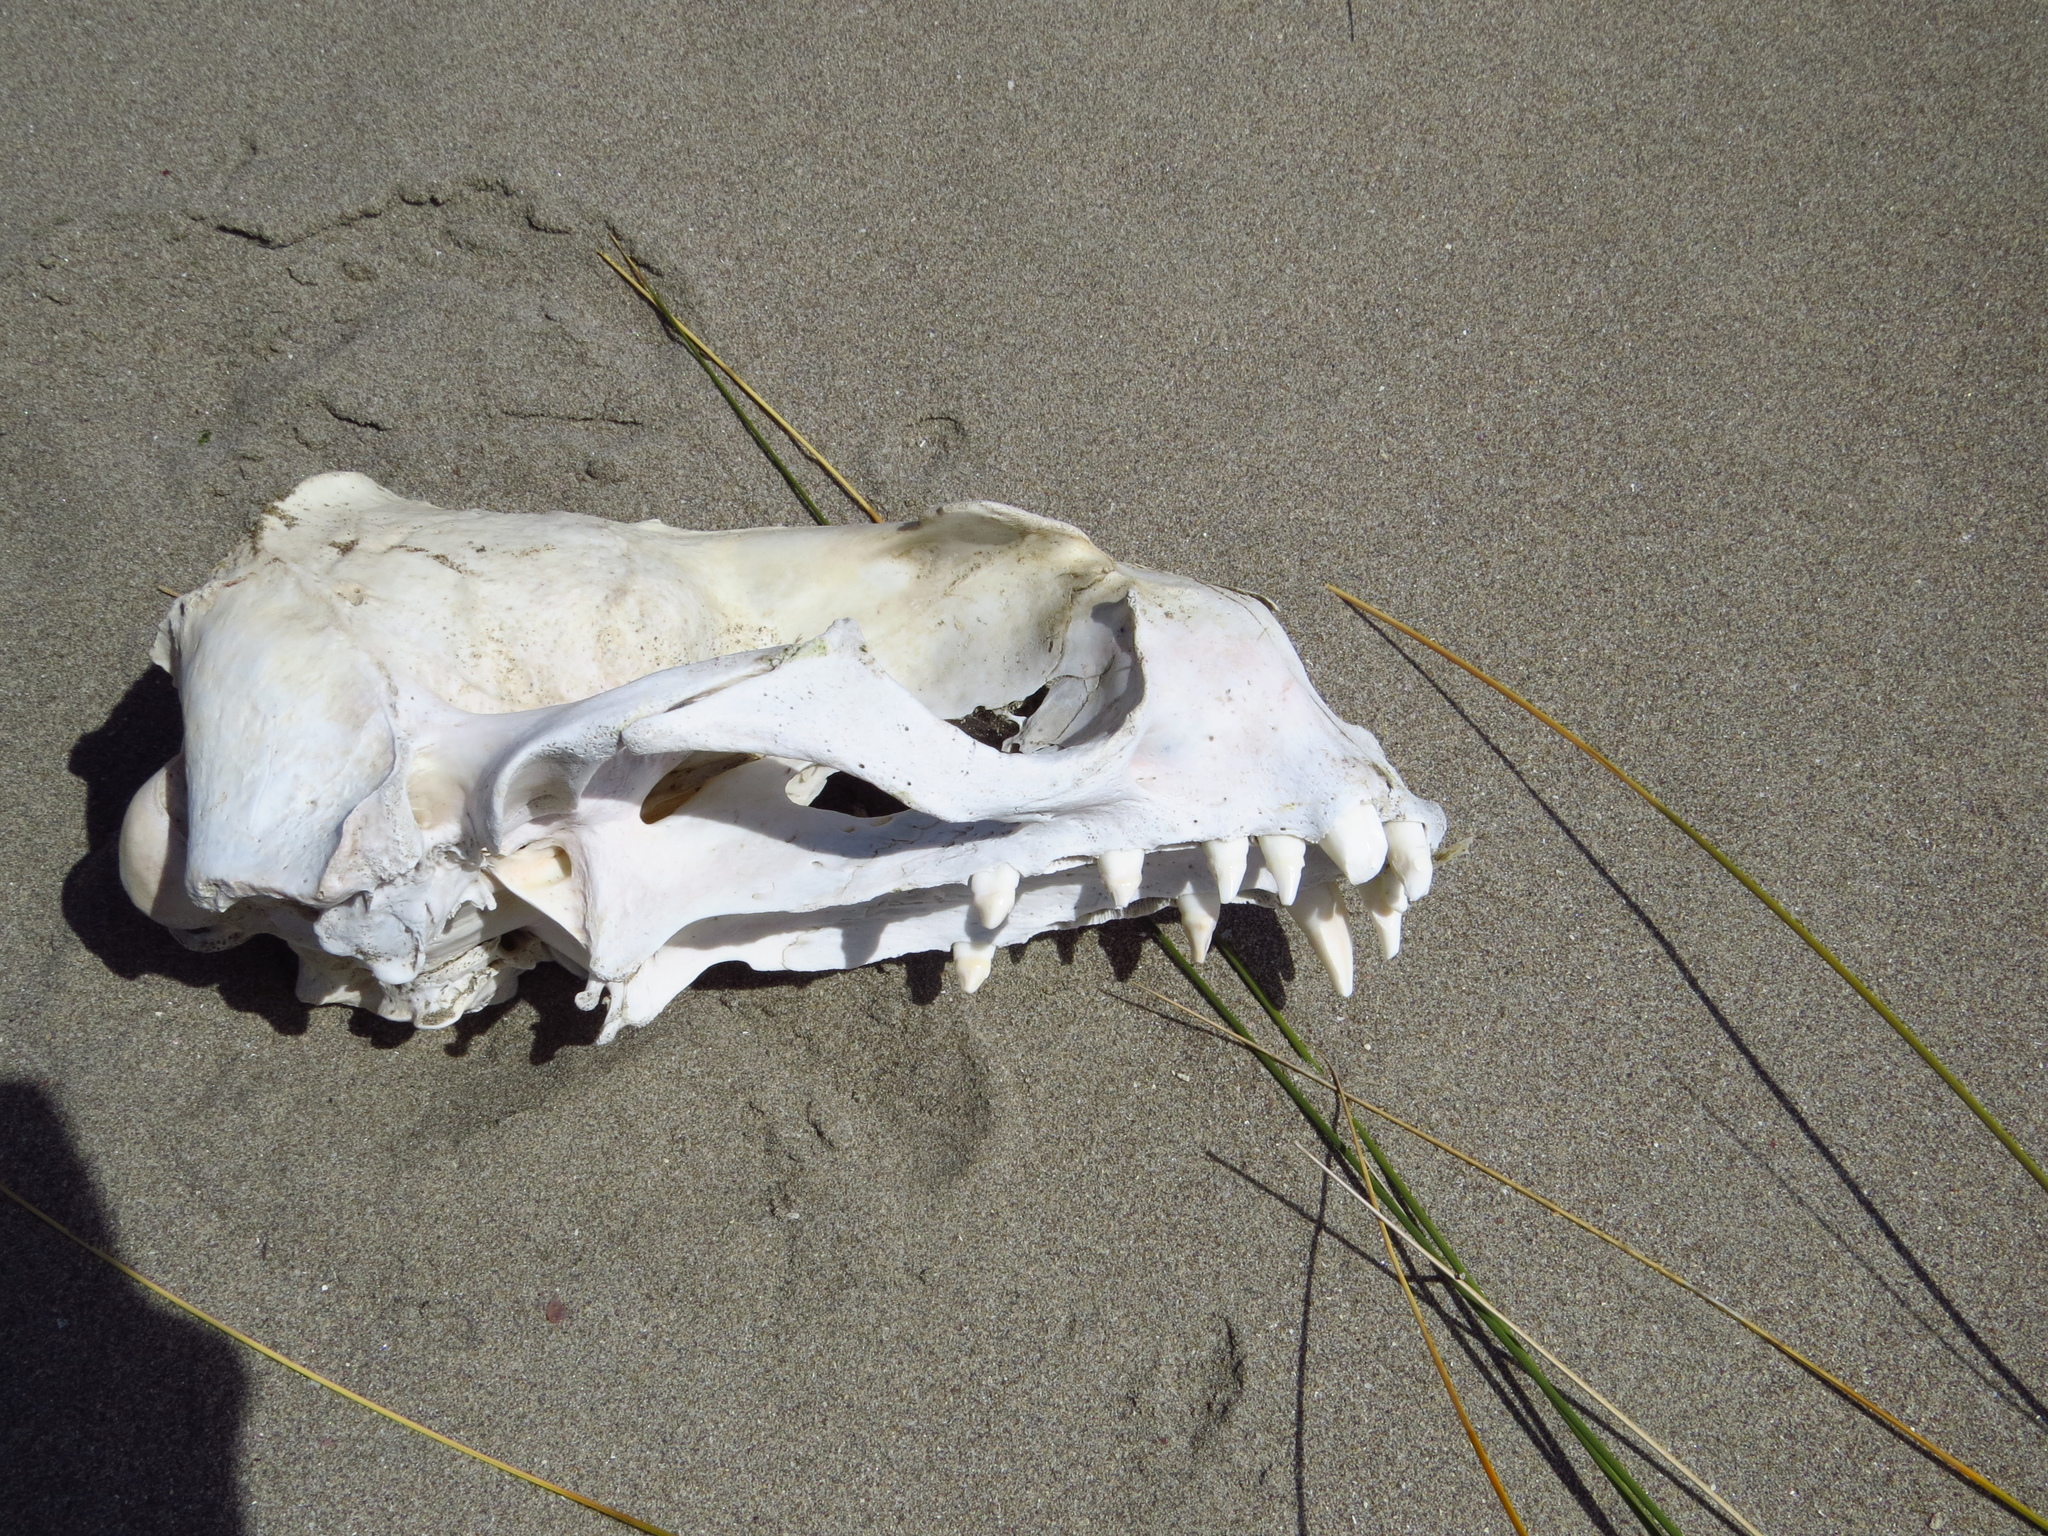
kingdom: Animalia
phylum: Chordata
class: Mammalia
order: Carnivora
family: Otariidae
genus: Otaria
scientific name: Otaria byronia
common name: South american sea lion
